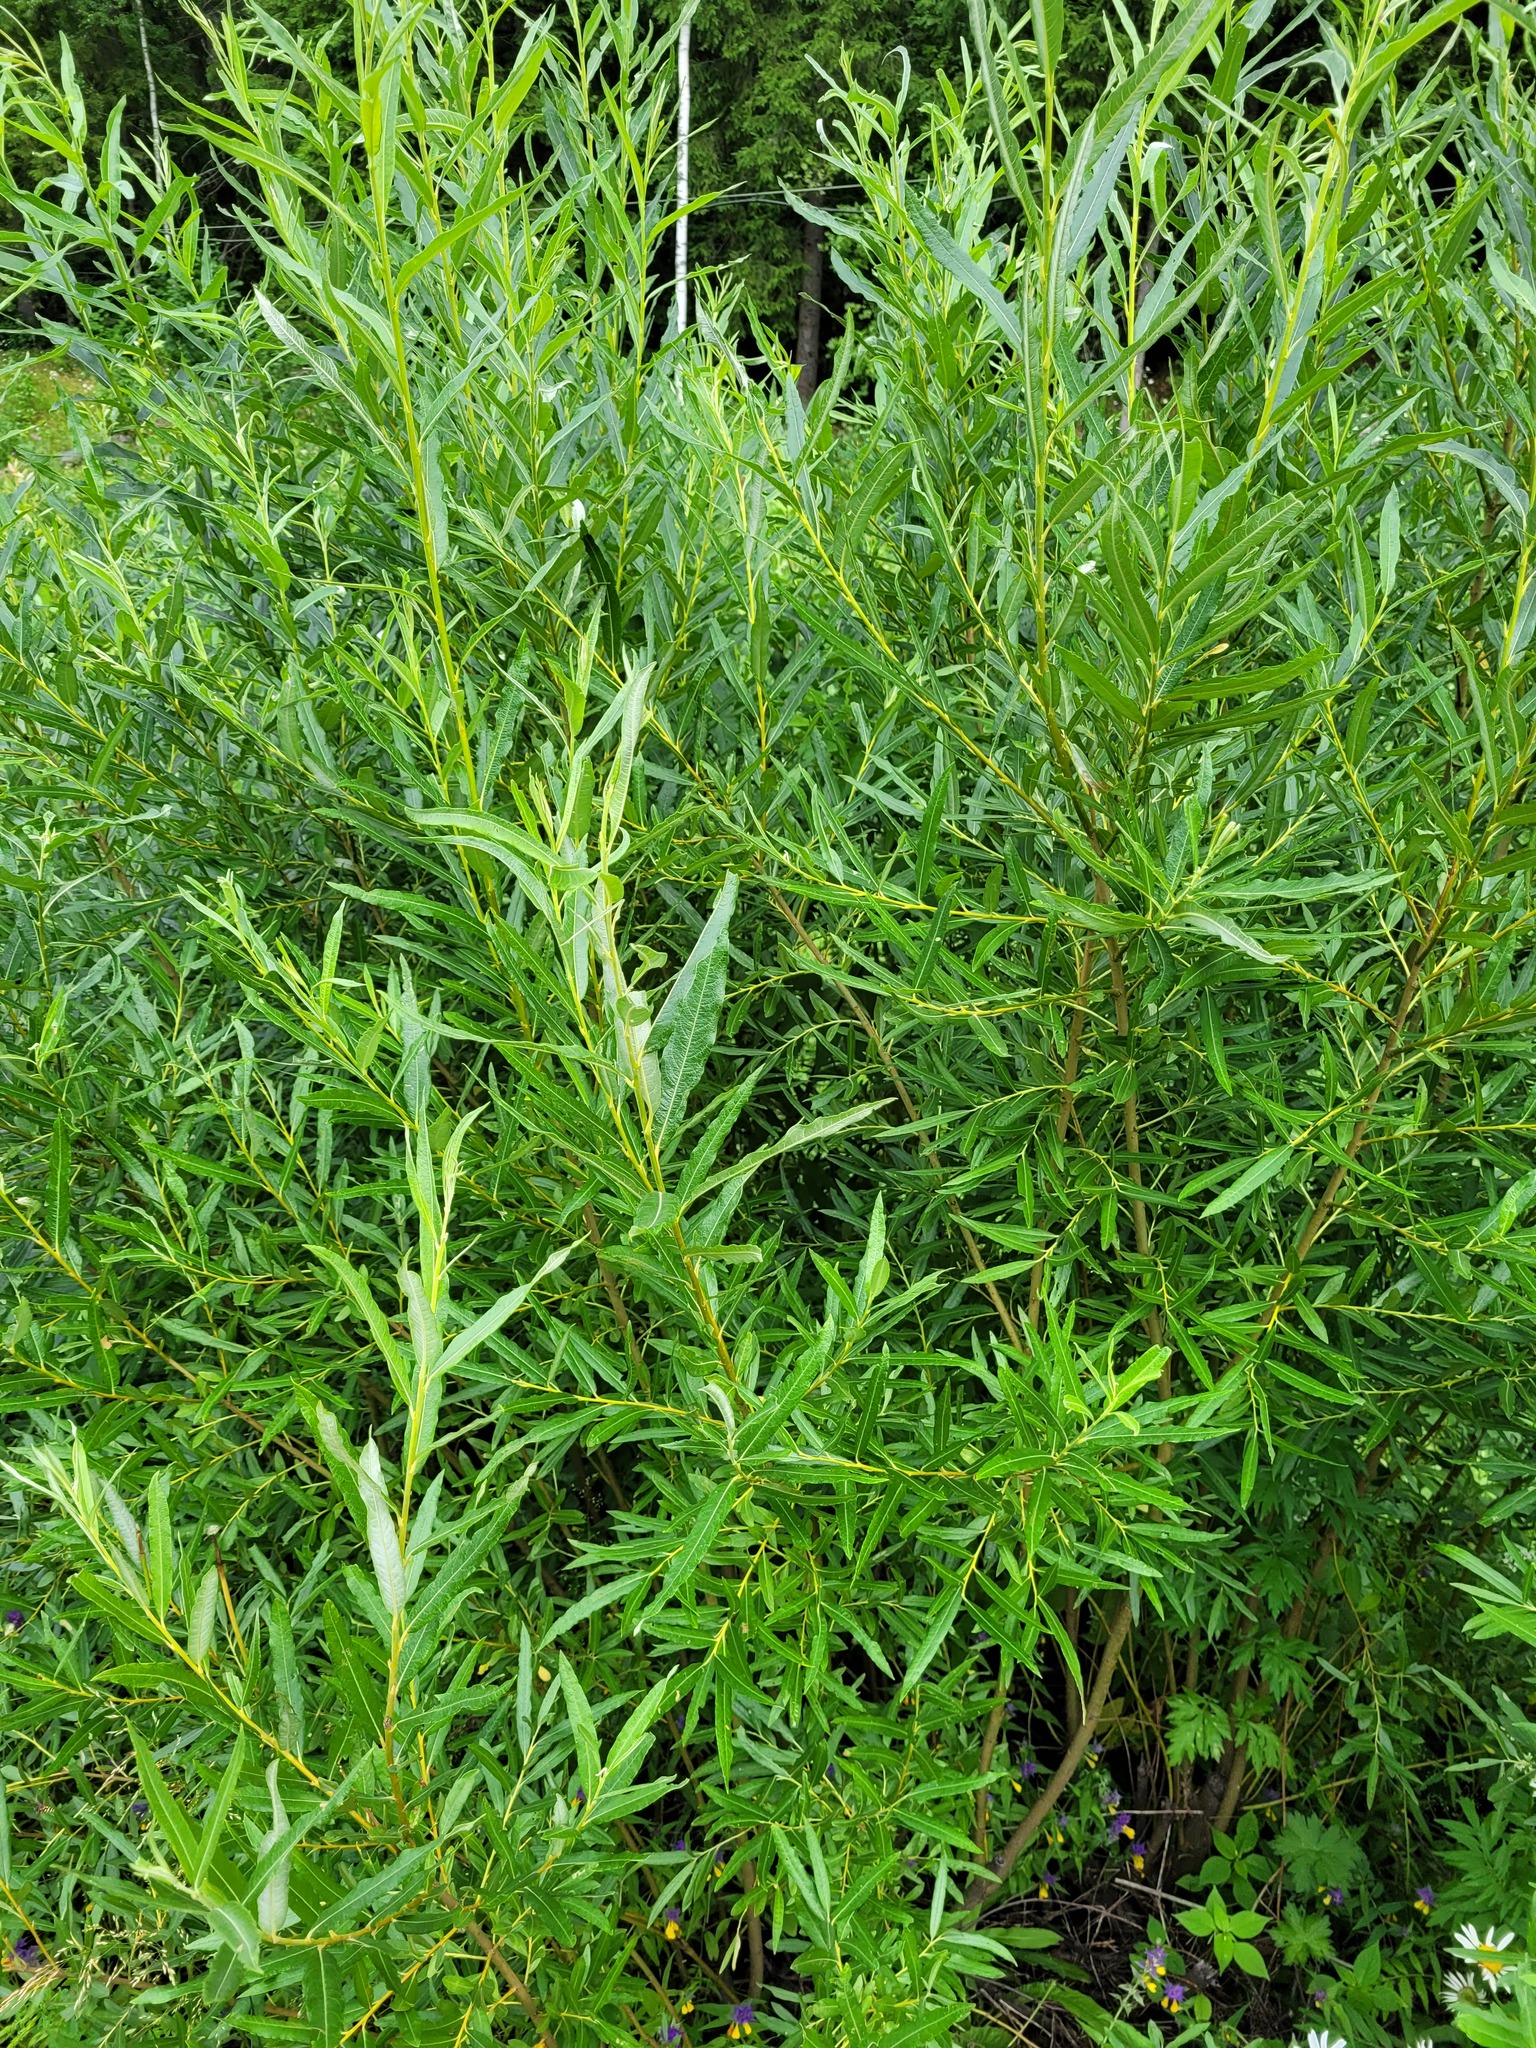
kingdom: Plantae
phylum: Tracheophyta
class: Magnoliopsida
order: Malpighiales
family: Salicaceae
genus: Salix
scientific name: Salix viminalis
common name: Osier
